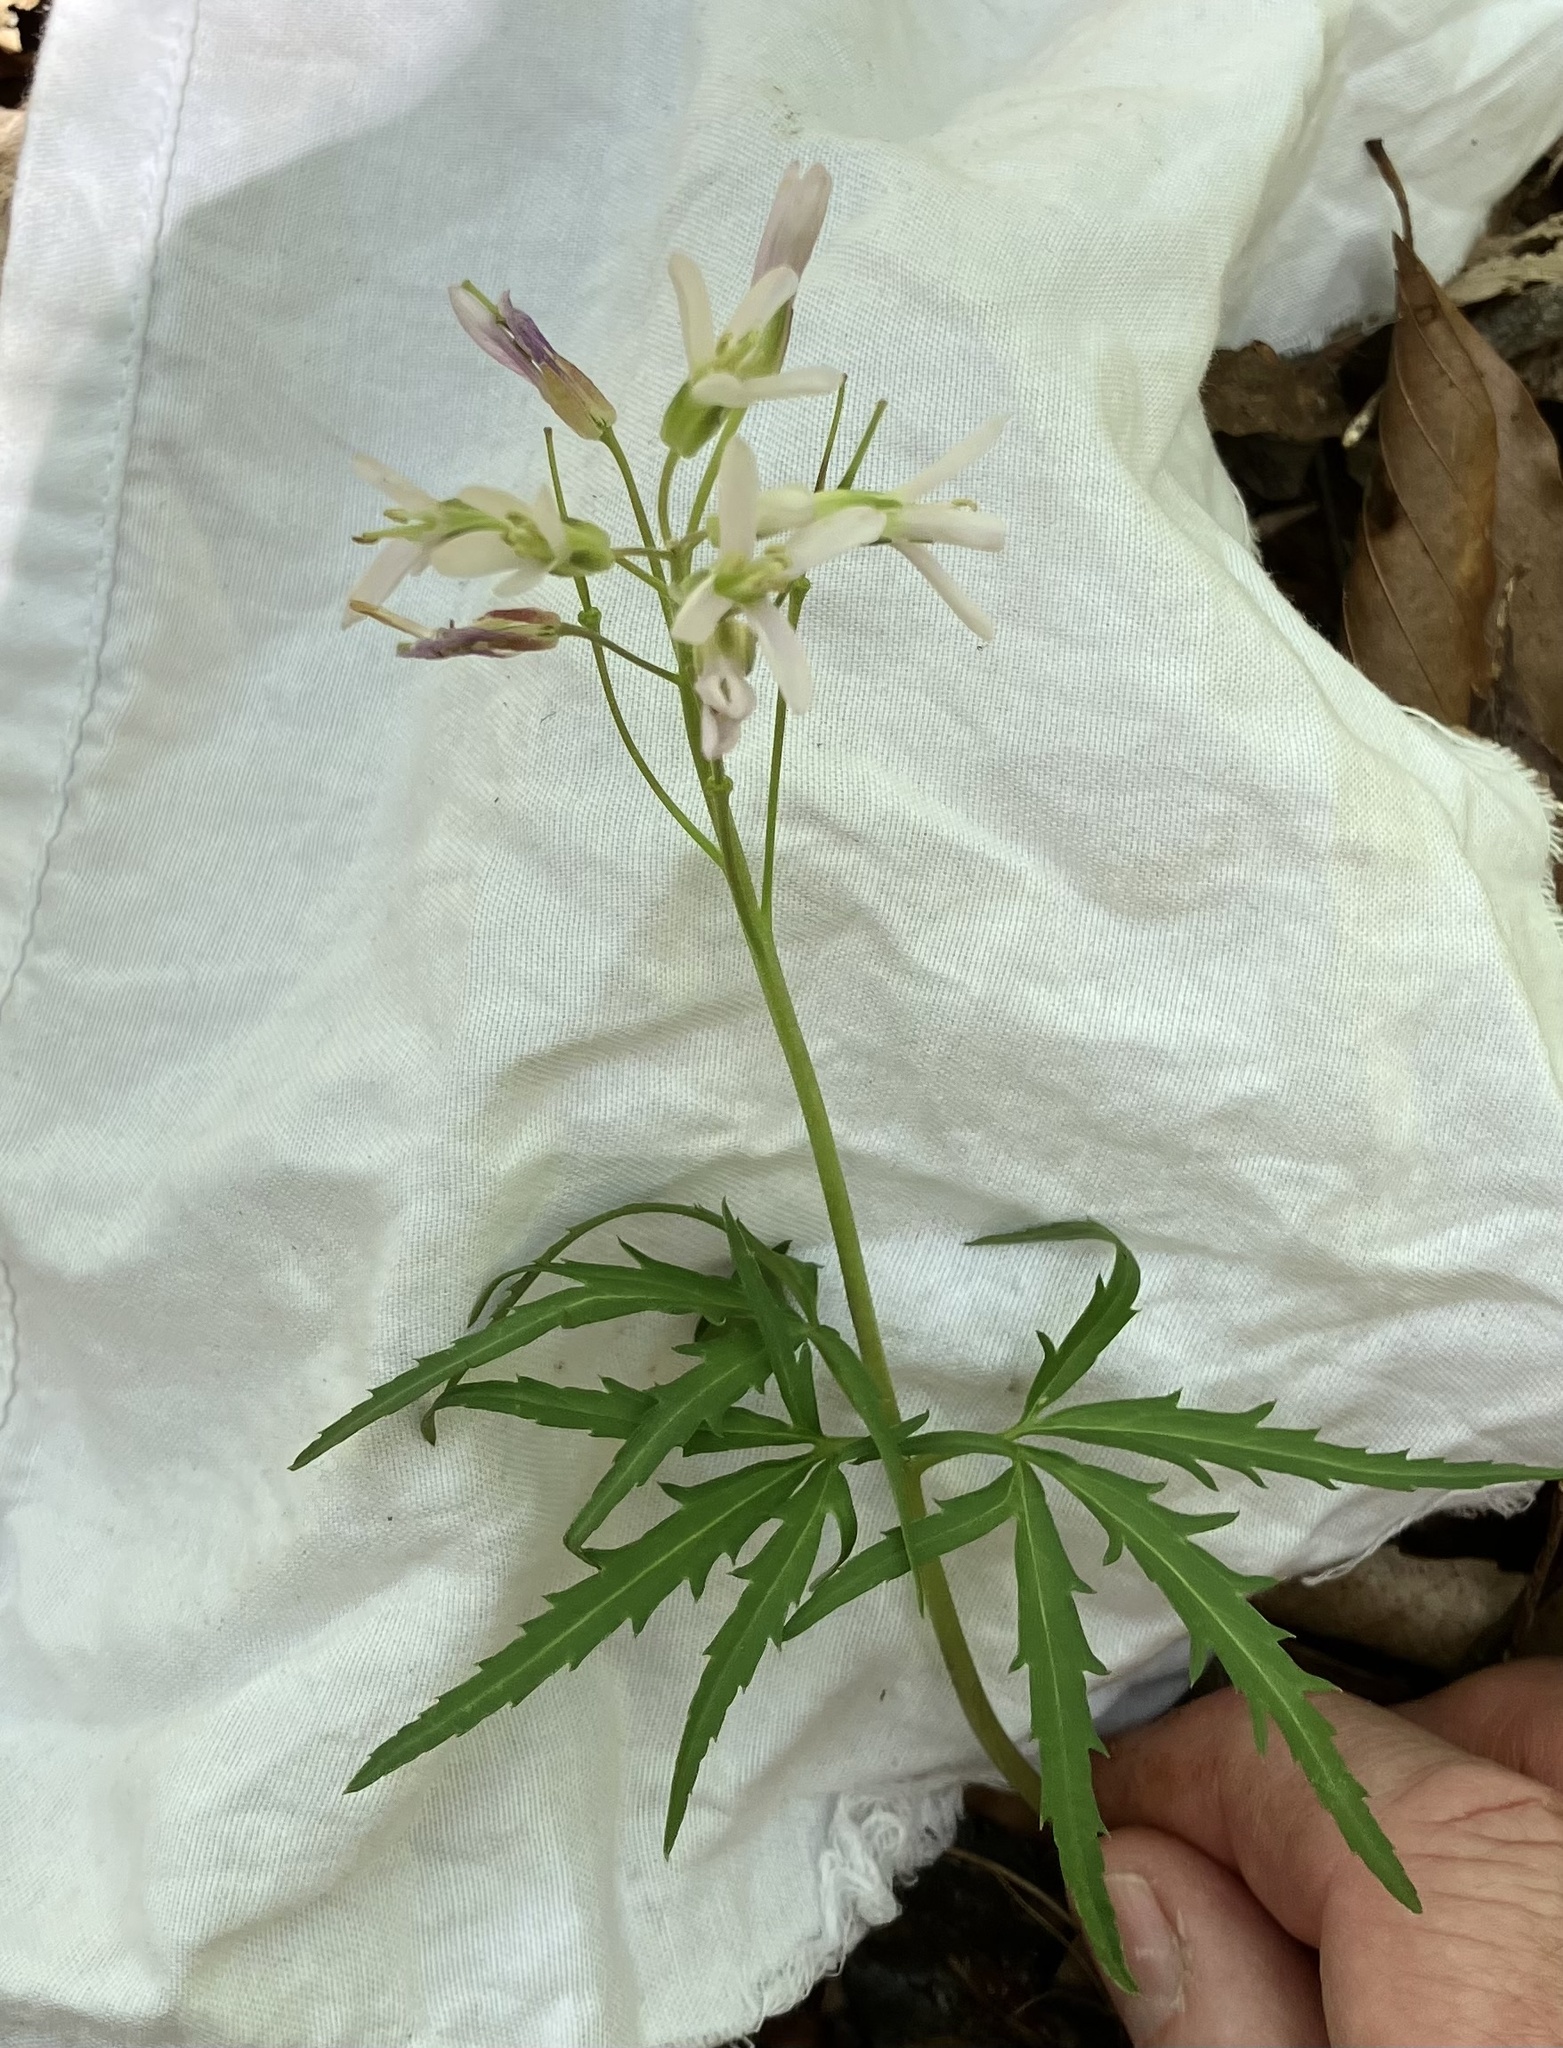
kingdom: Plantae
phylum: Tracheophyta
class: Magnoliopsida
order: Brassicales
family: Brassicaceae
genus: Cardamine
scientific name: Cardamine concatenata
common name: Cut-leaf toothcup
